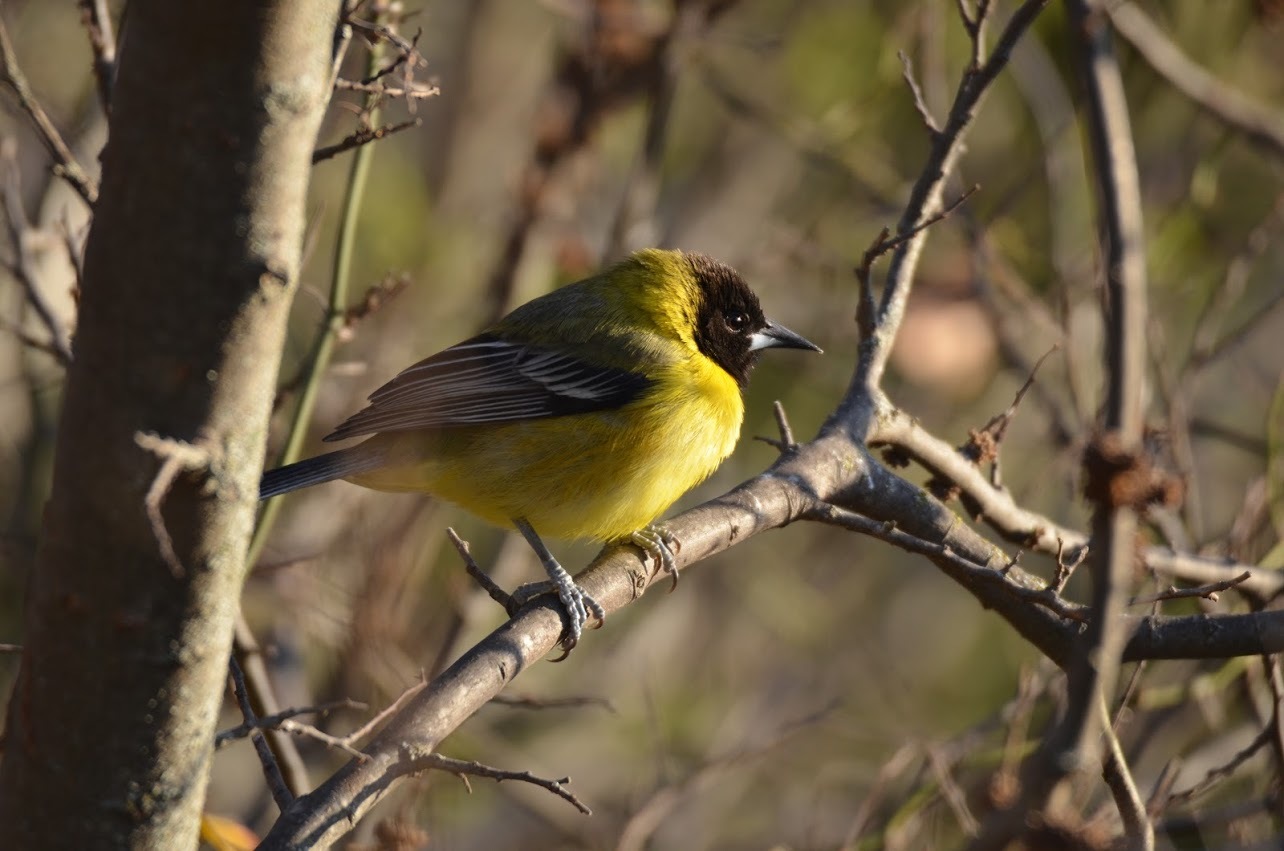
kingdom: Animalia
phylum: Chordata
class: Aves
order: Passeriformes
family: Icteridae
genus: Icterus
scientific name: Icterus graduacauda
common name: Audubon's oriole
